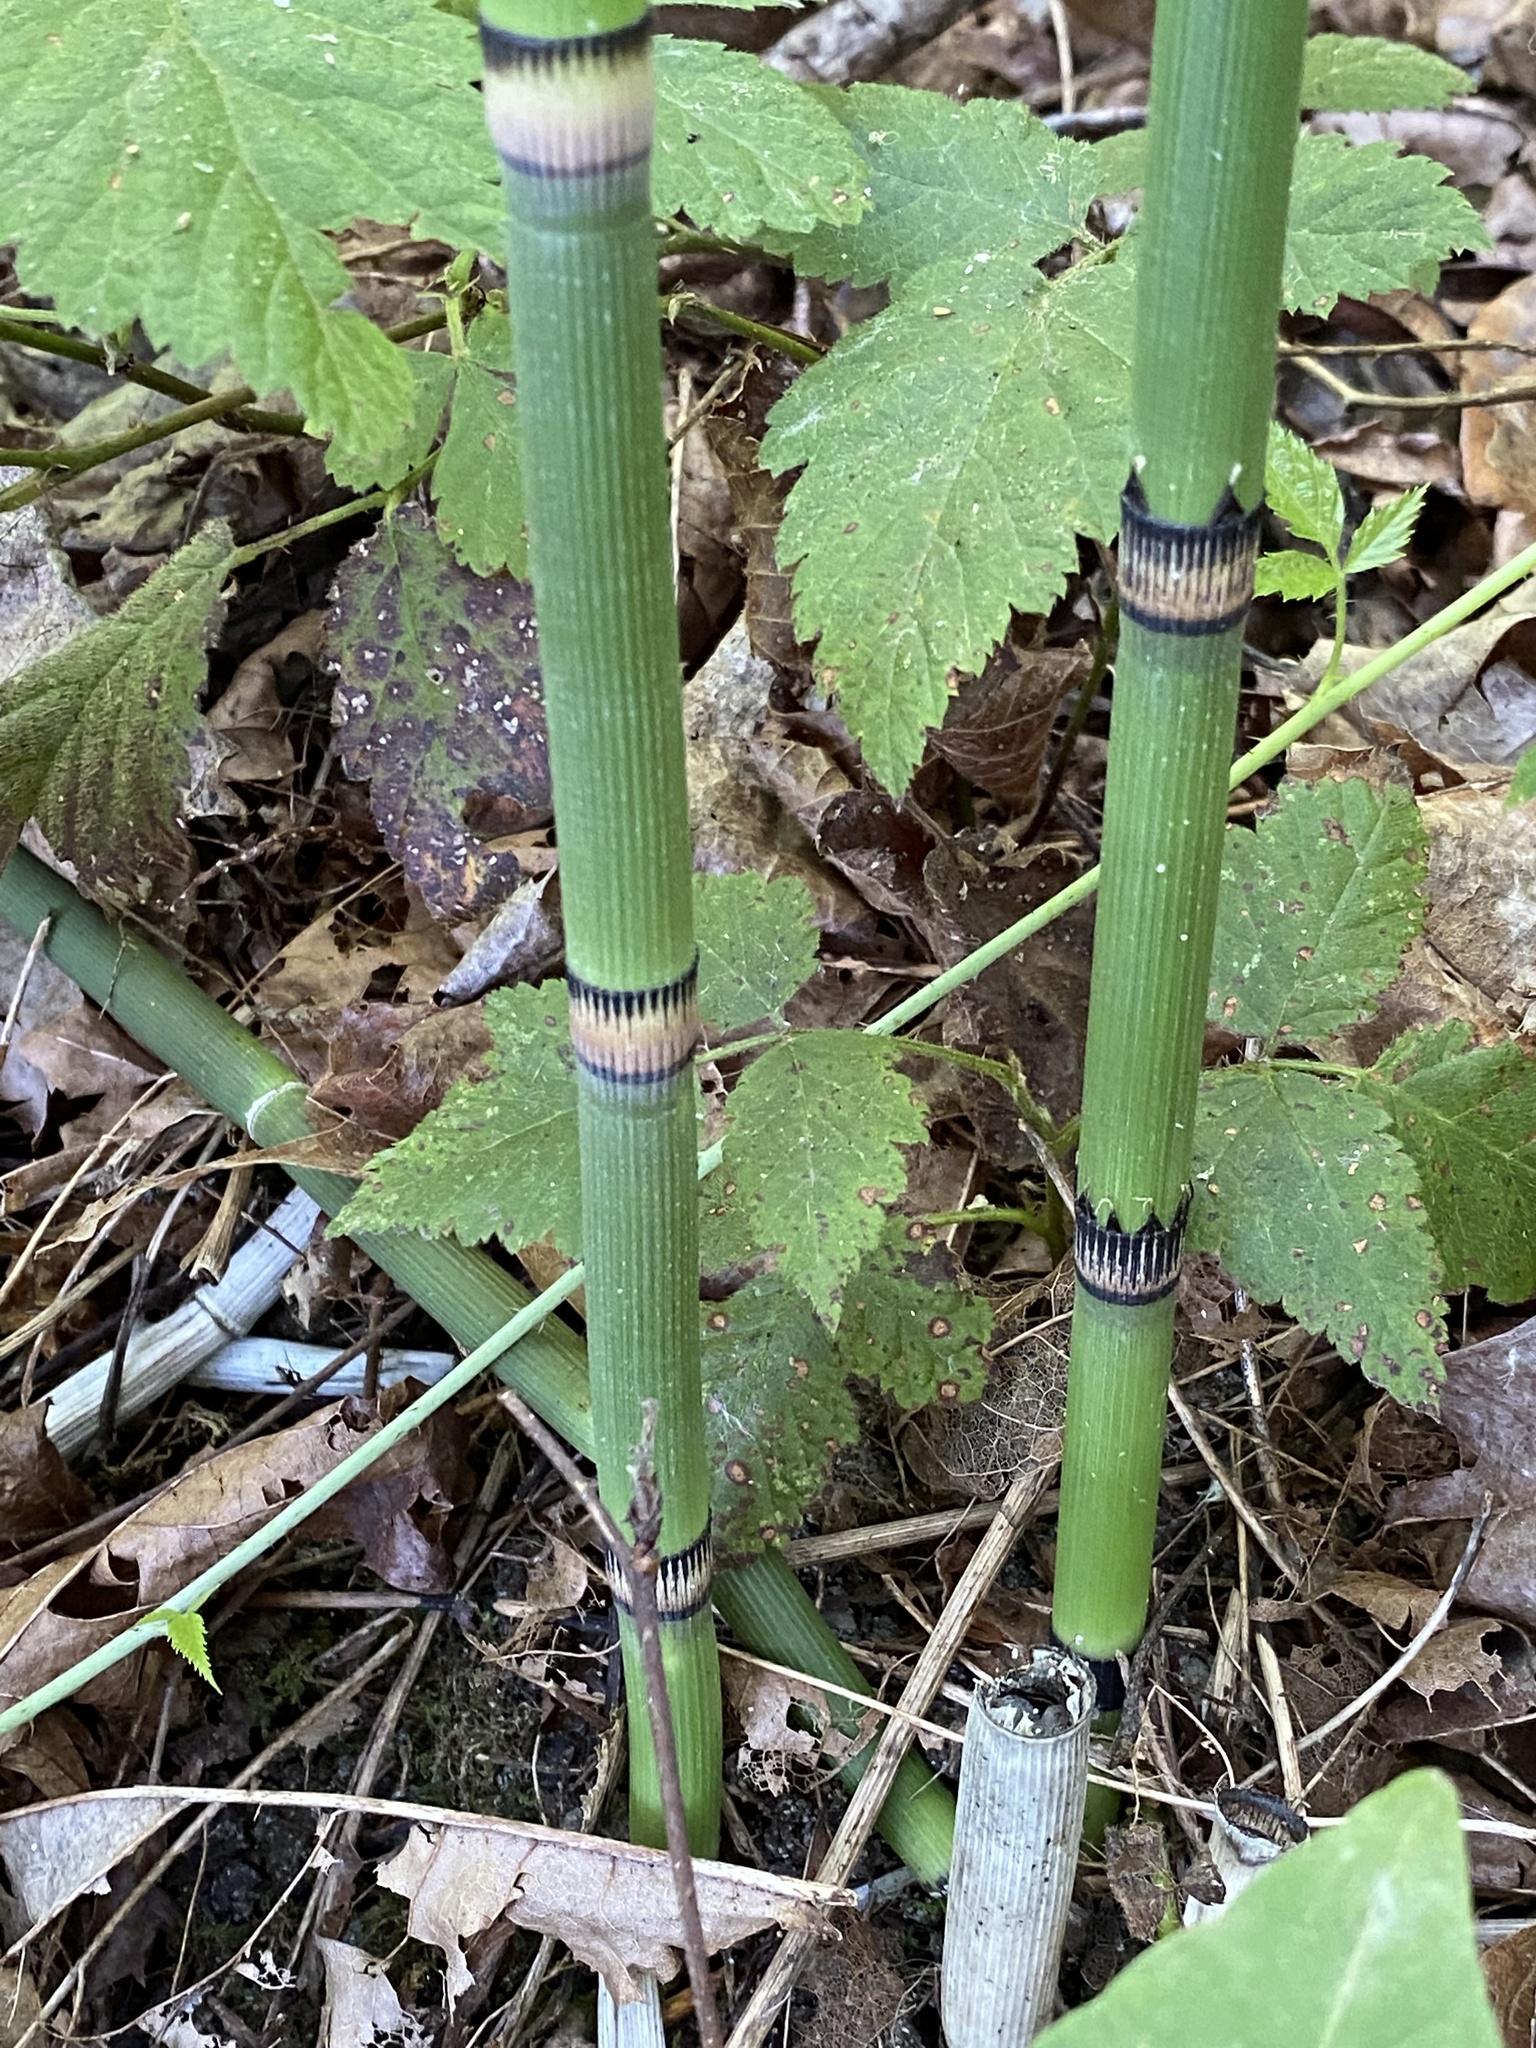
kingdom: Plantae
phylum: Tracheophyta
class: Polypodiopsida
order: Equisetales
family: Equisetaceae
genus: Equisetum
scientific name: Equisetum hyemale
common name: Rough horsetail
